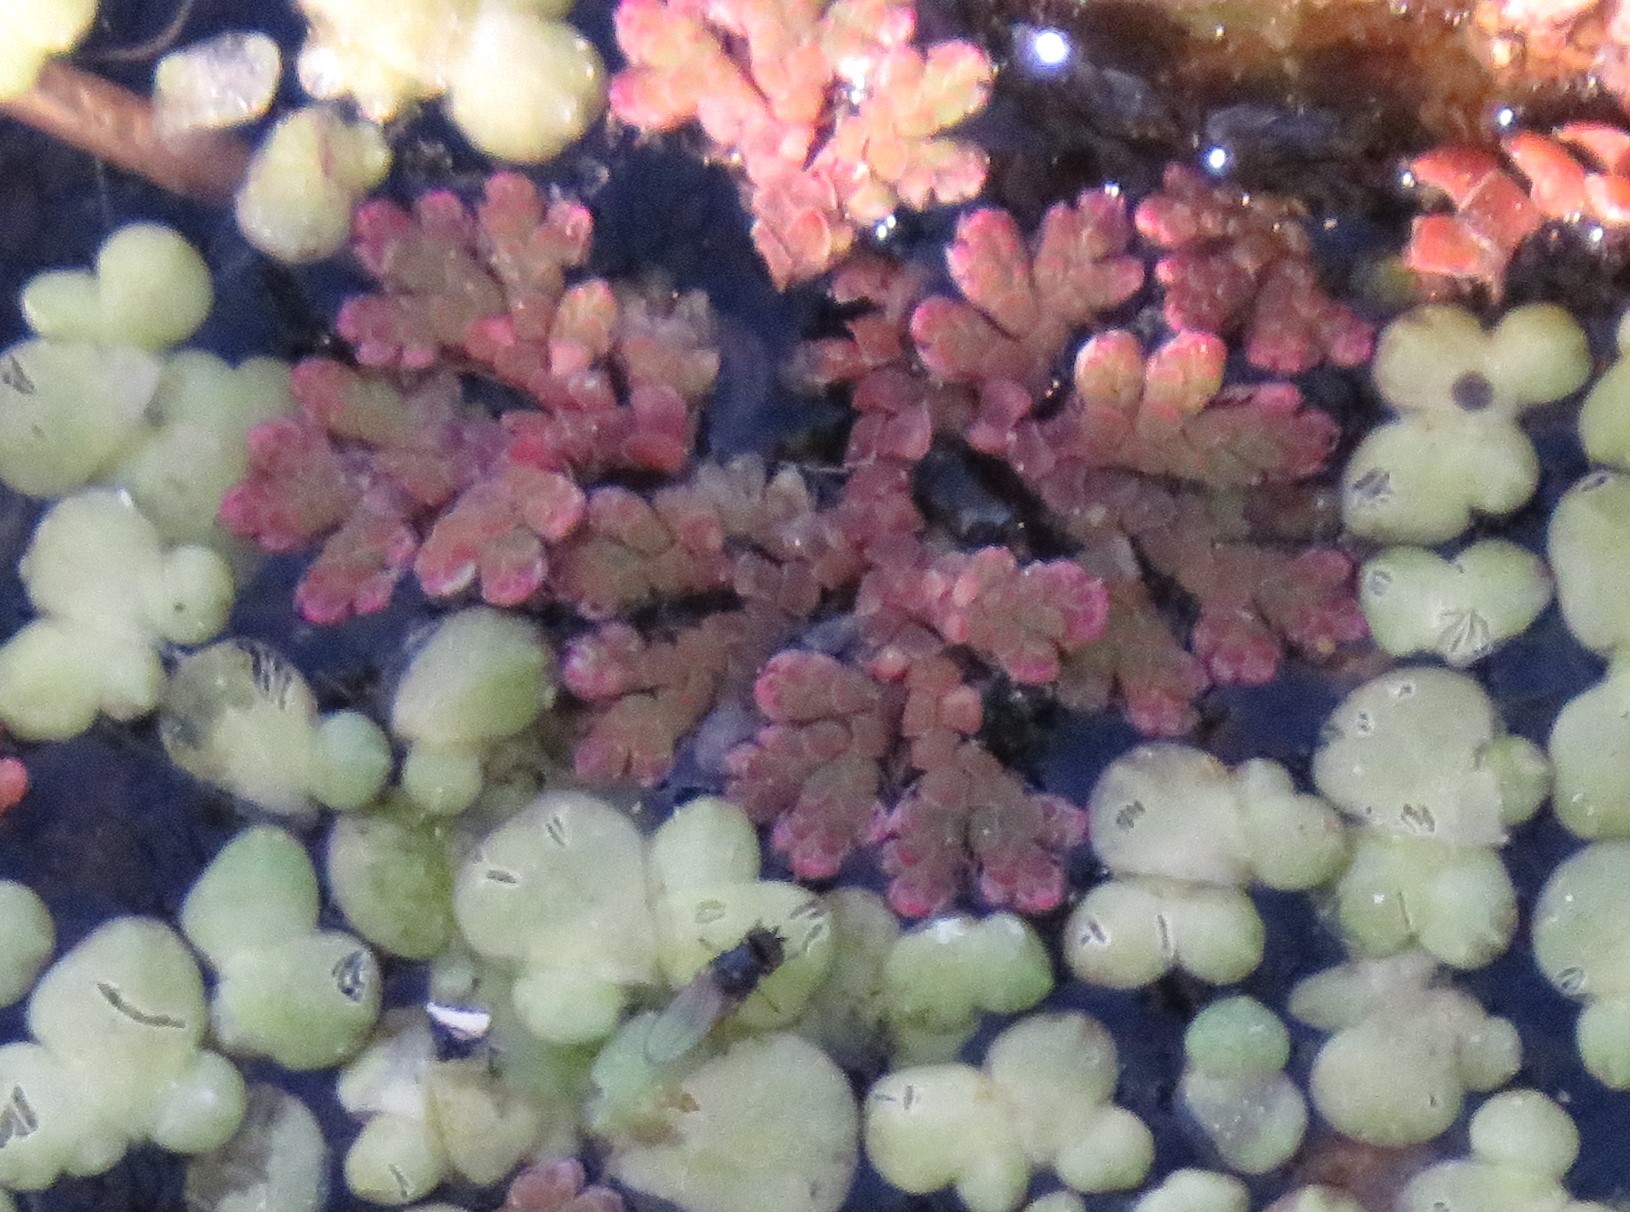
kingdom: Plantae
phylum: Tracheophyta
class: Polypodiopsida
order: Salviniales
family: Salviniaceae
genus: Azolla
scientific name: Azolla filiculoides
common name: Water fern
